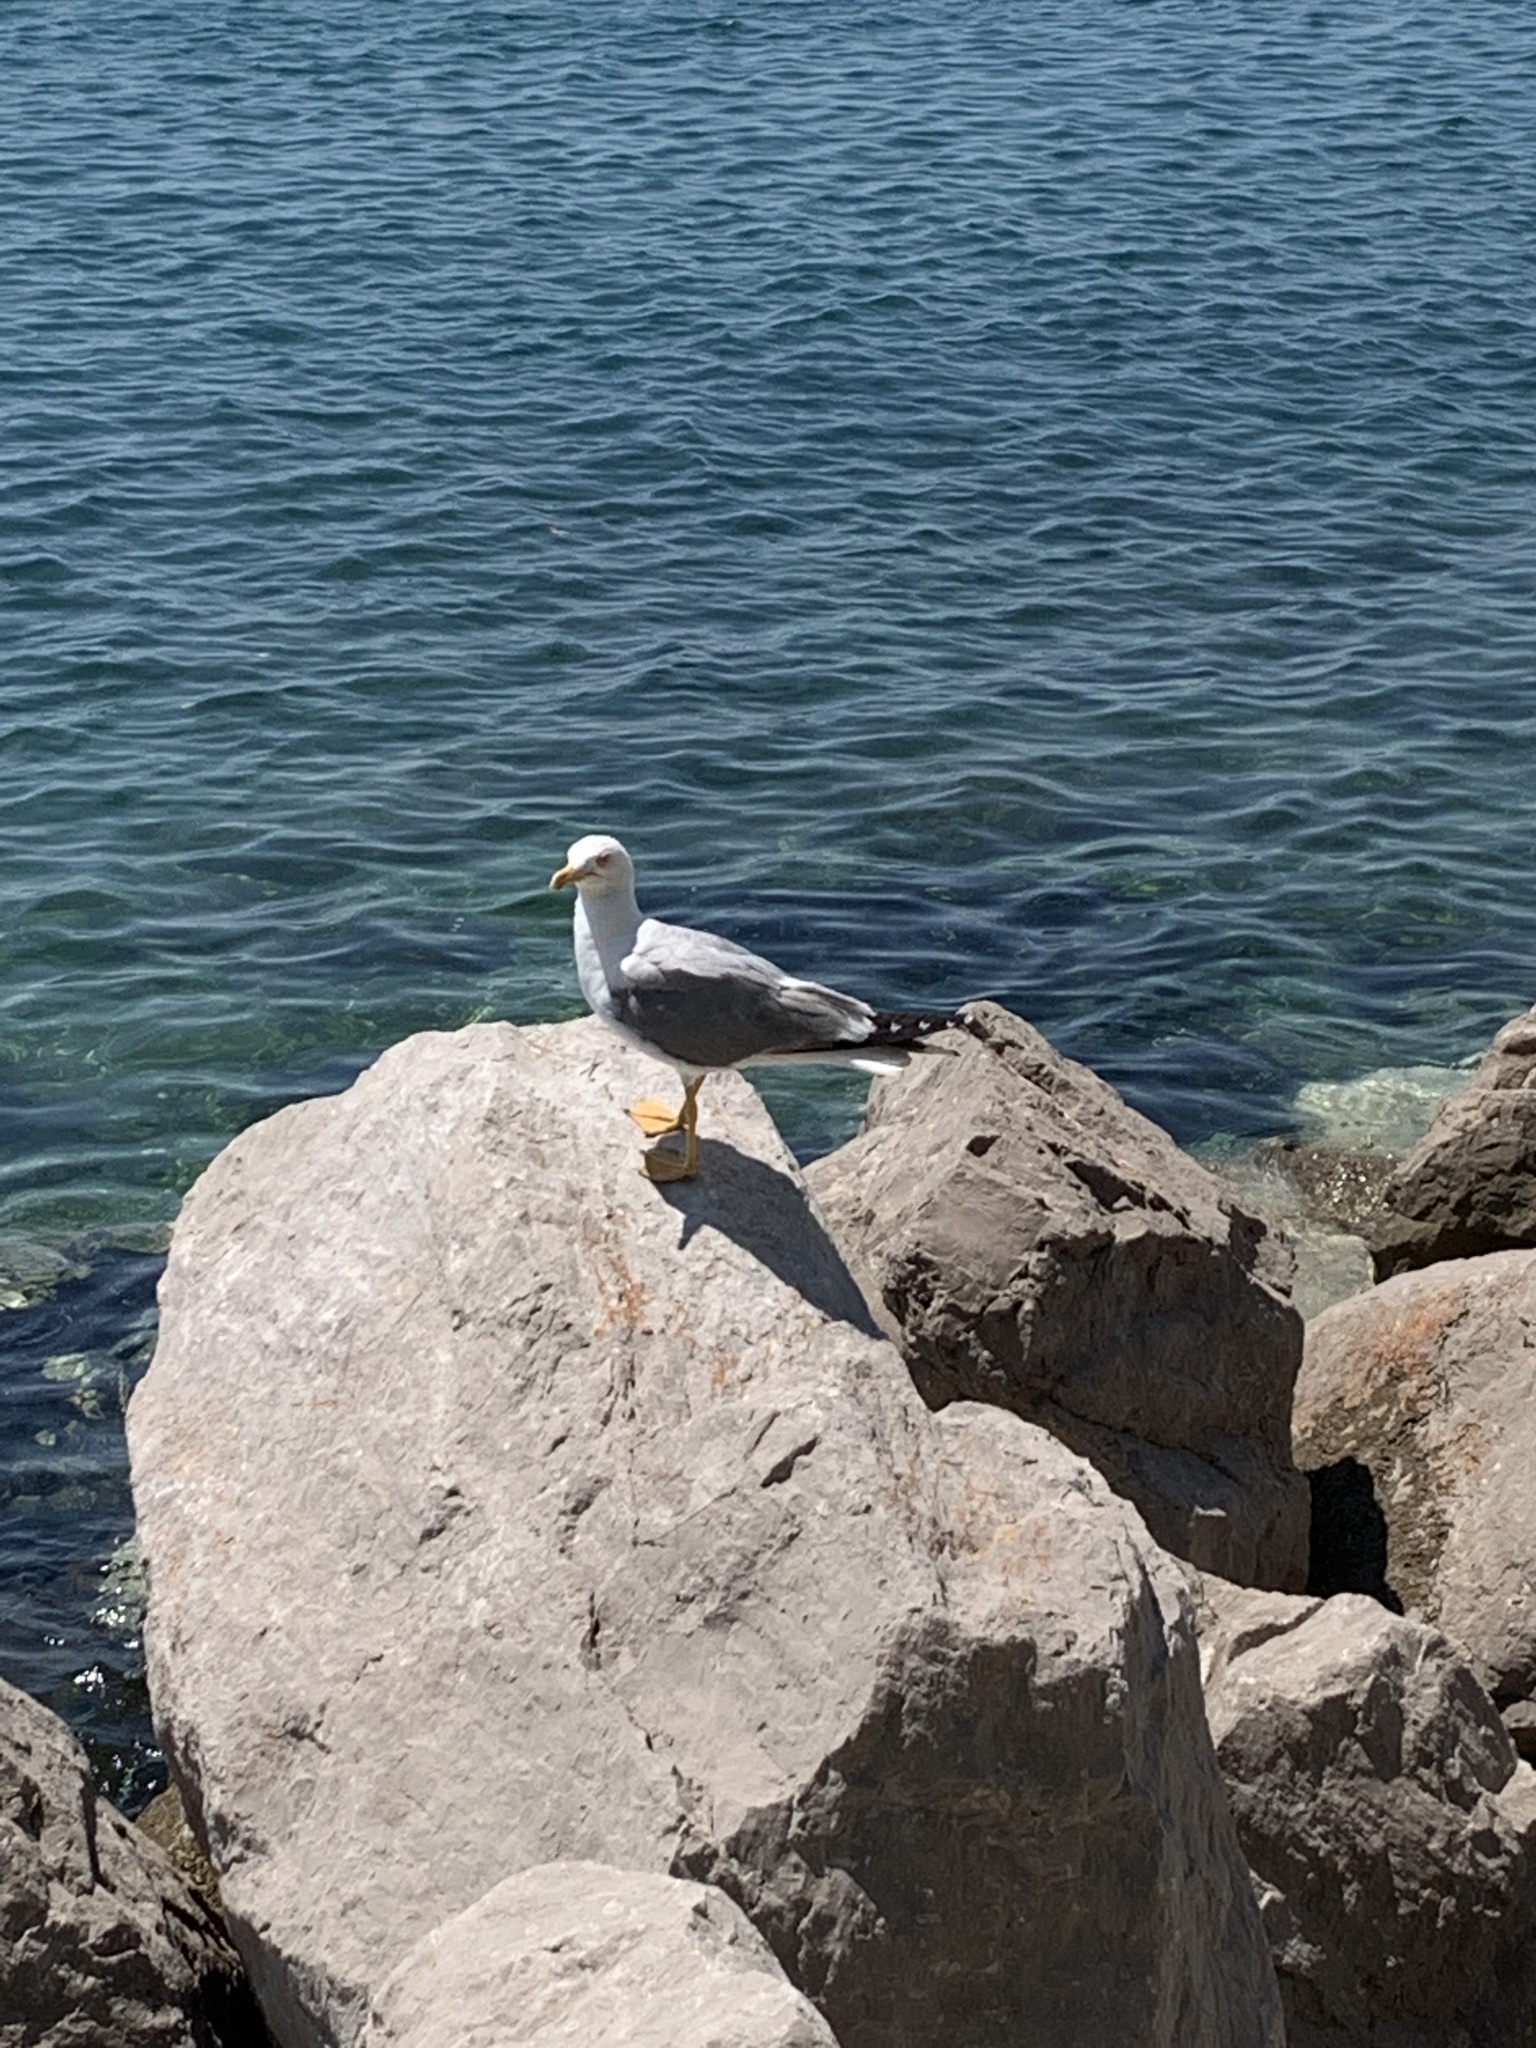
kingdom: Animalia
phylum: Chordata
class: Aves
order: Charadriiformes
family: Laridae
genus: Larus
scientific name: Larus michahellis
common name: Yellow-legged gull
